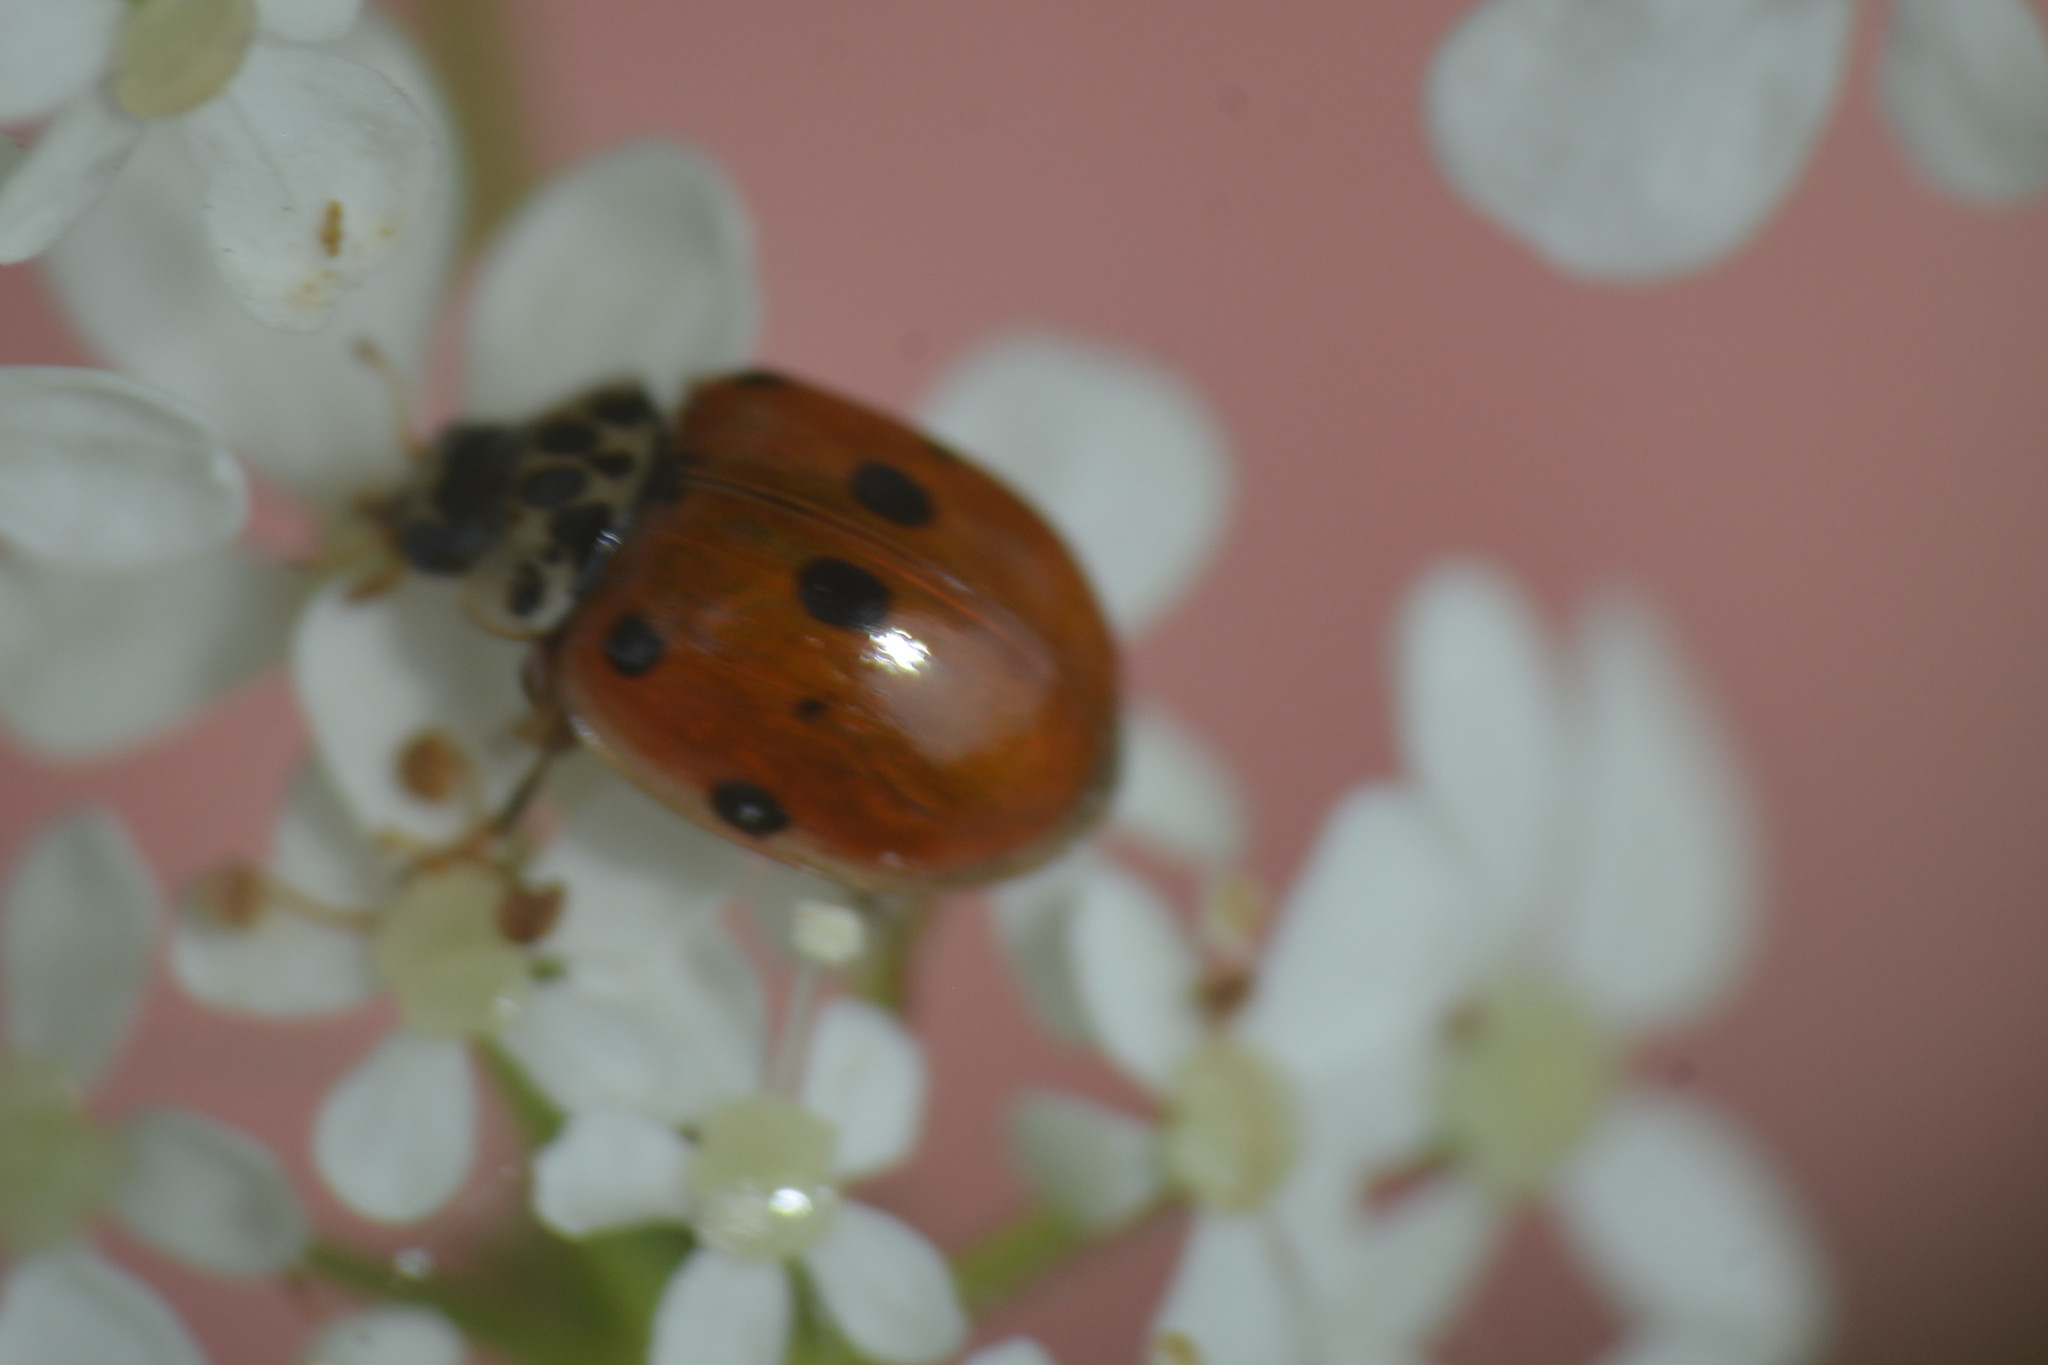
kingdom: Animalia
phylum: Arthropoda
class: Insecta
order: Coleoptera
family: Coccinellidae
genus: Adalia
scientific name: Adalia decempunctata
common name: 10-spot ladybird
